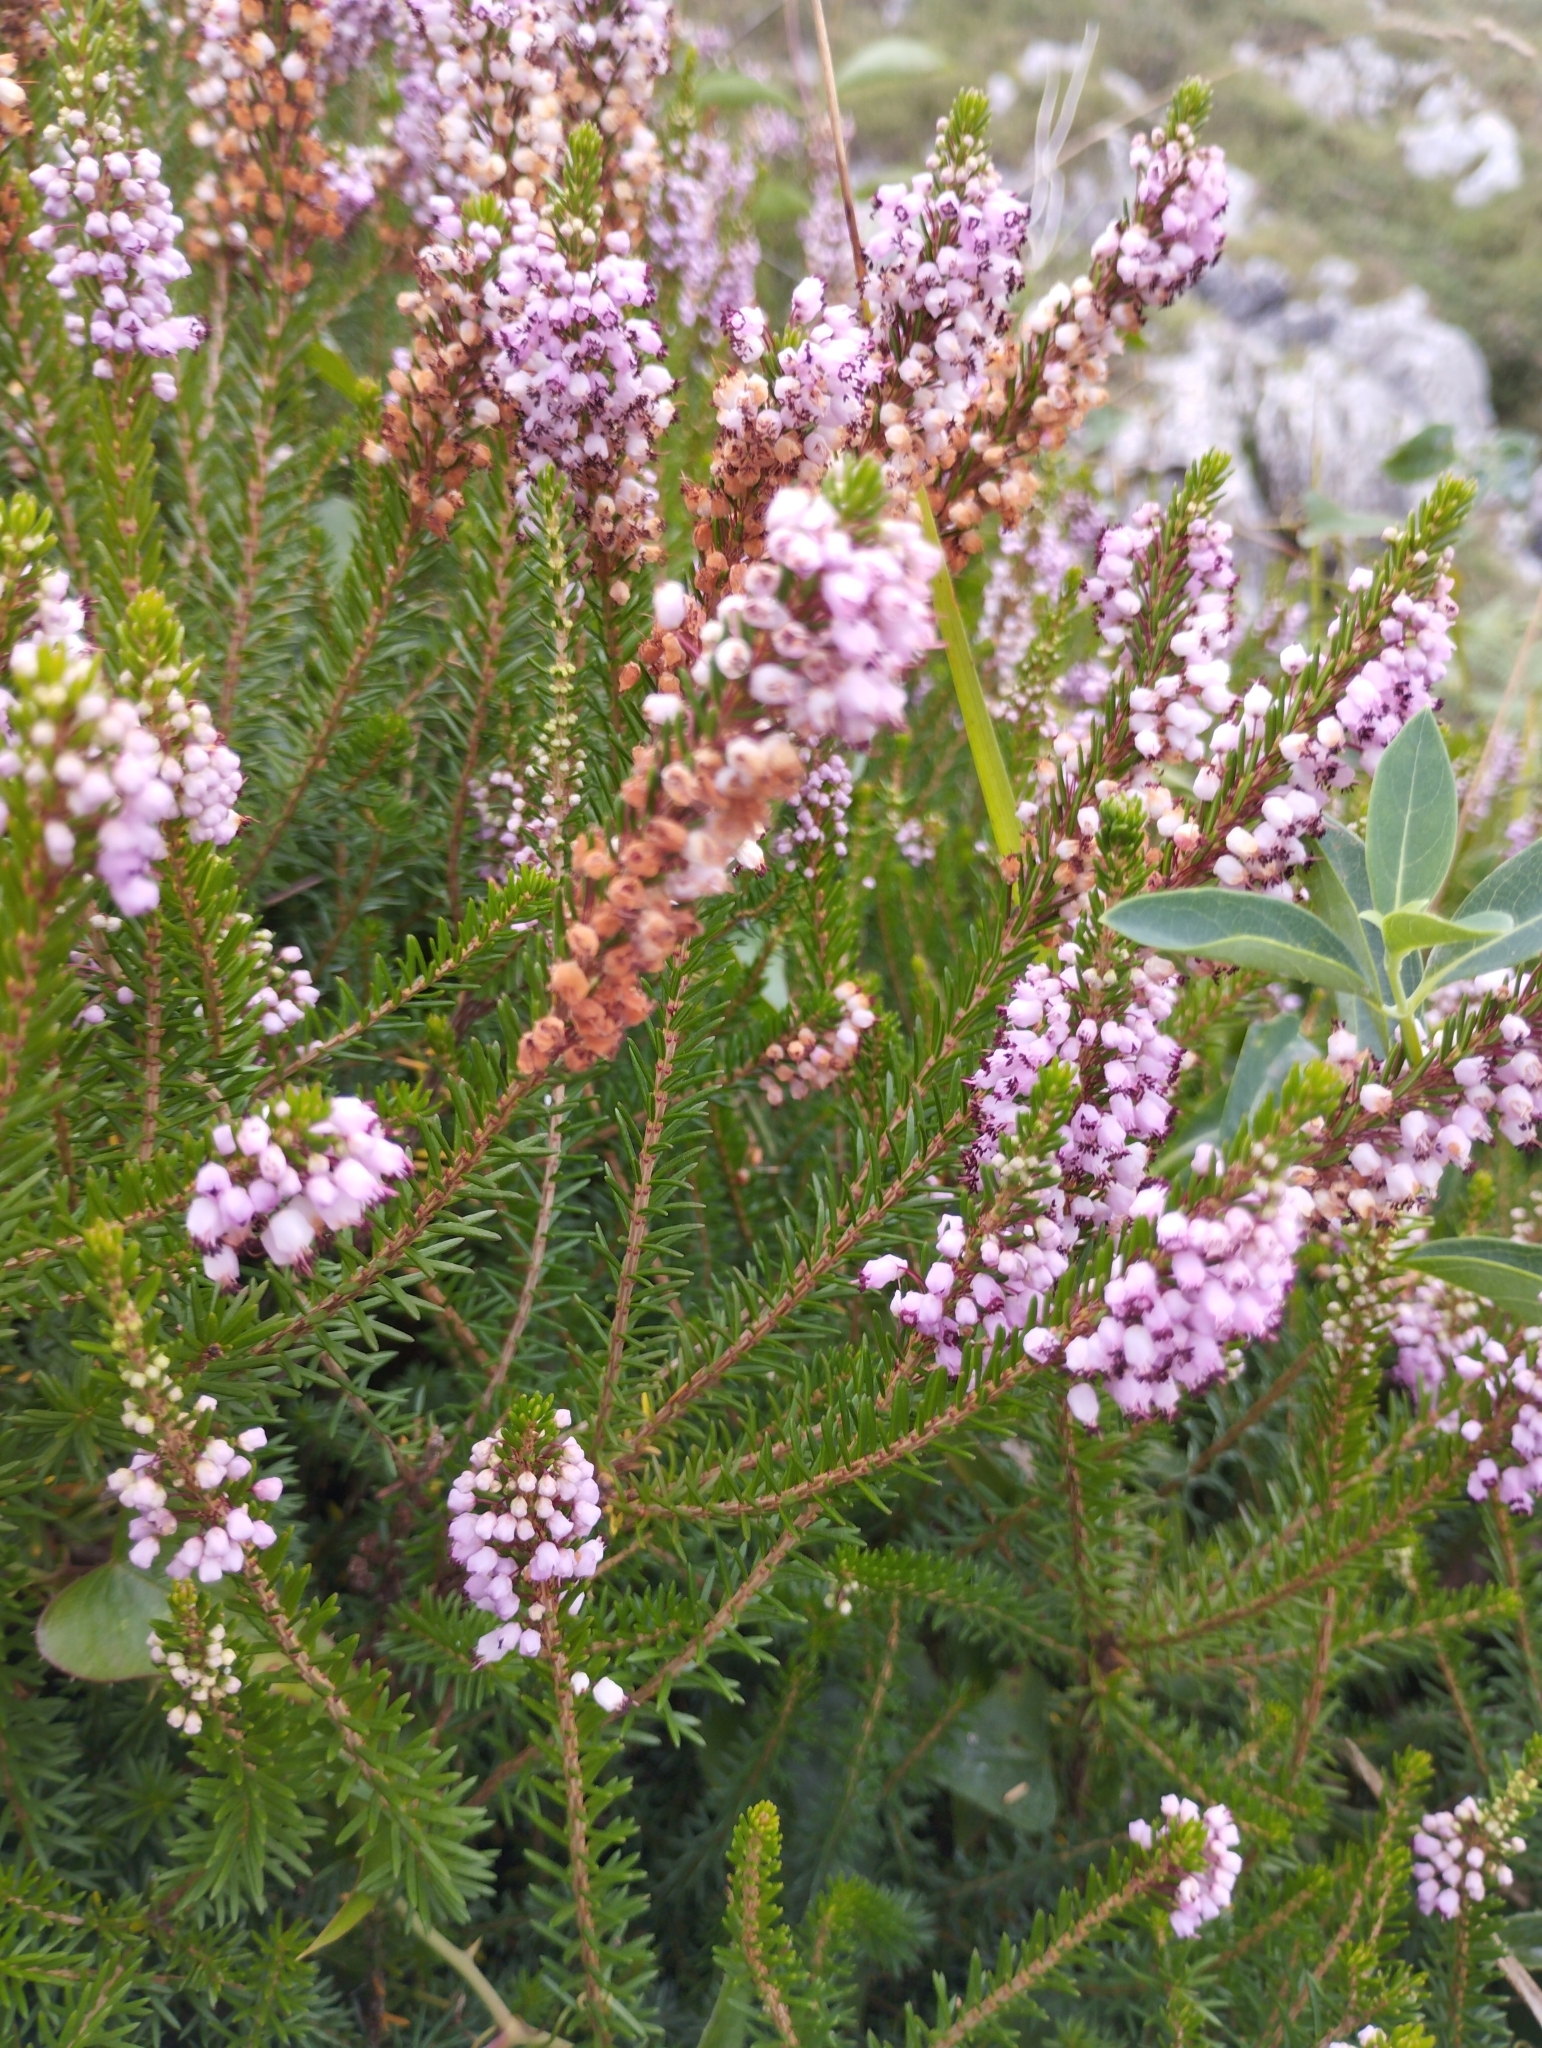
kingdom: Plantae
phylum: Tracheophyta
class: Magnoliopsida
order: Ericales
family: Ericaceae
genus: Erica
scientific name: Erica vagans
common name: Cornish heath
